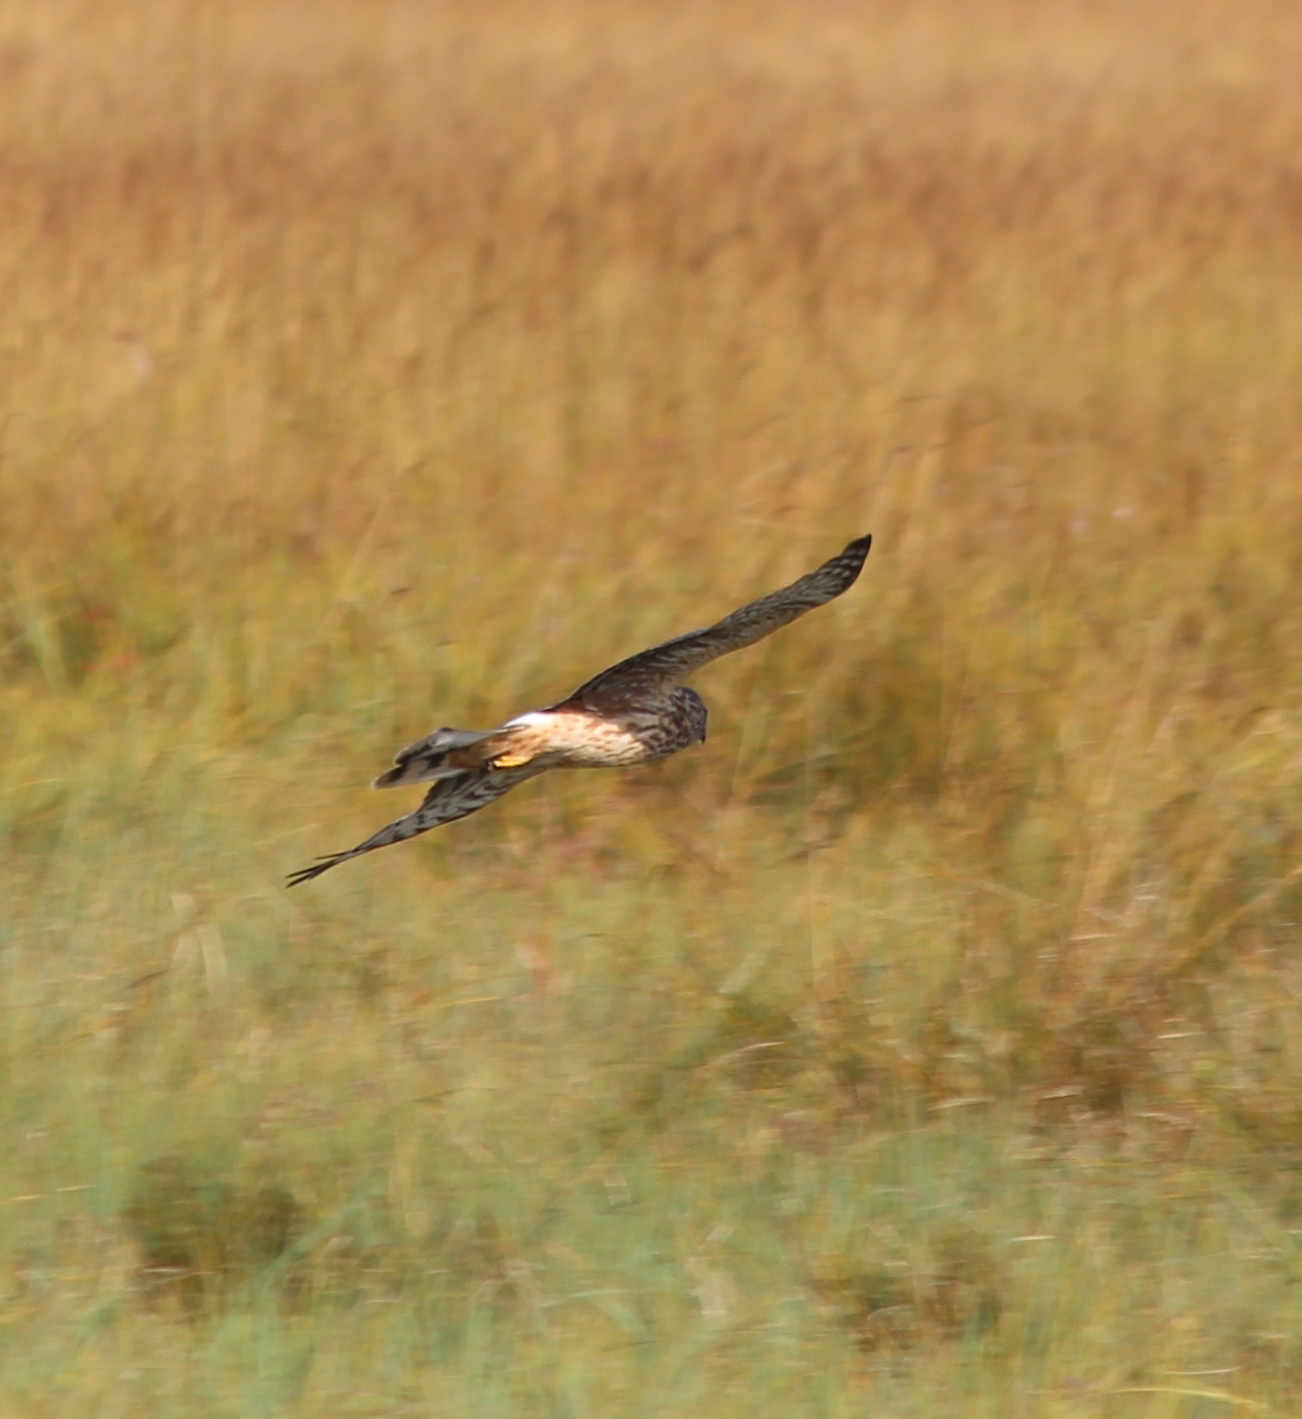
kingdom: Animalia
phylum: Chordata
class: Aves
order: Accipitriformes
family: Accipitridae
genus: Circus
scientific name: Circus cyaneus
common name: Hen harrier
